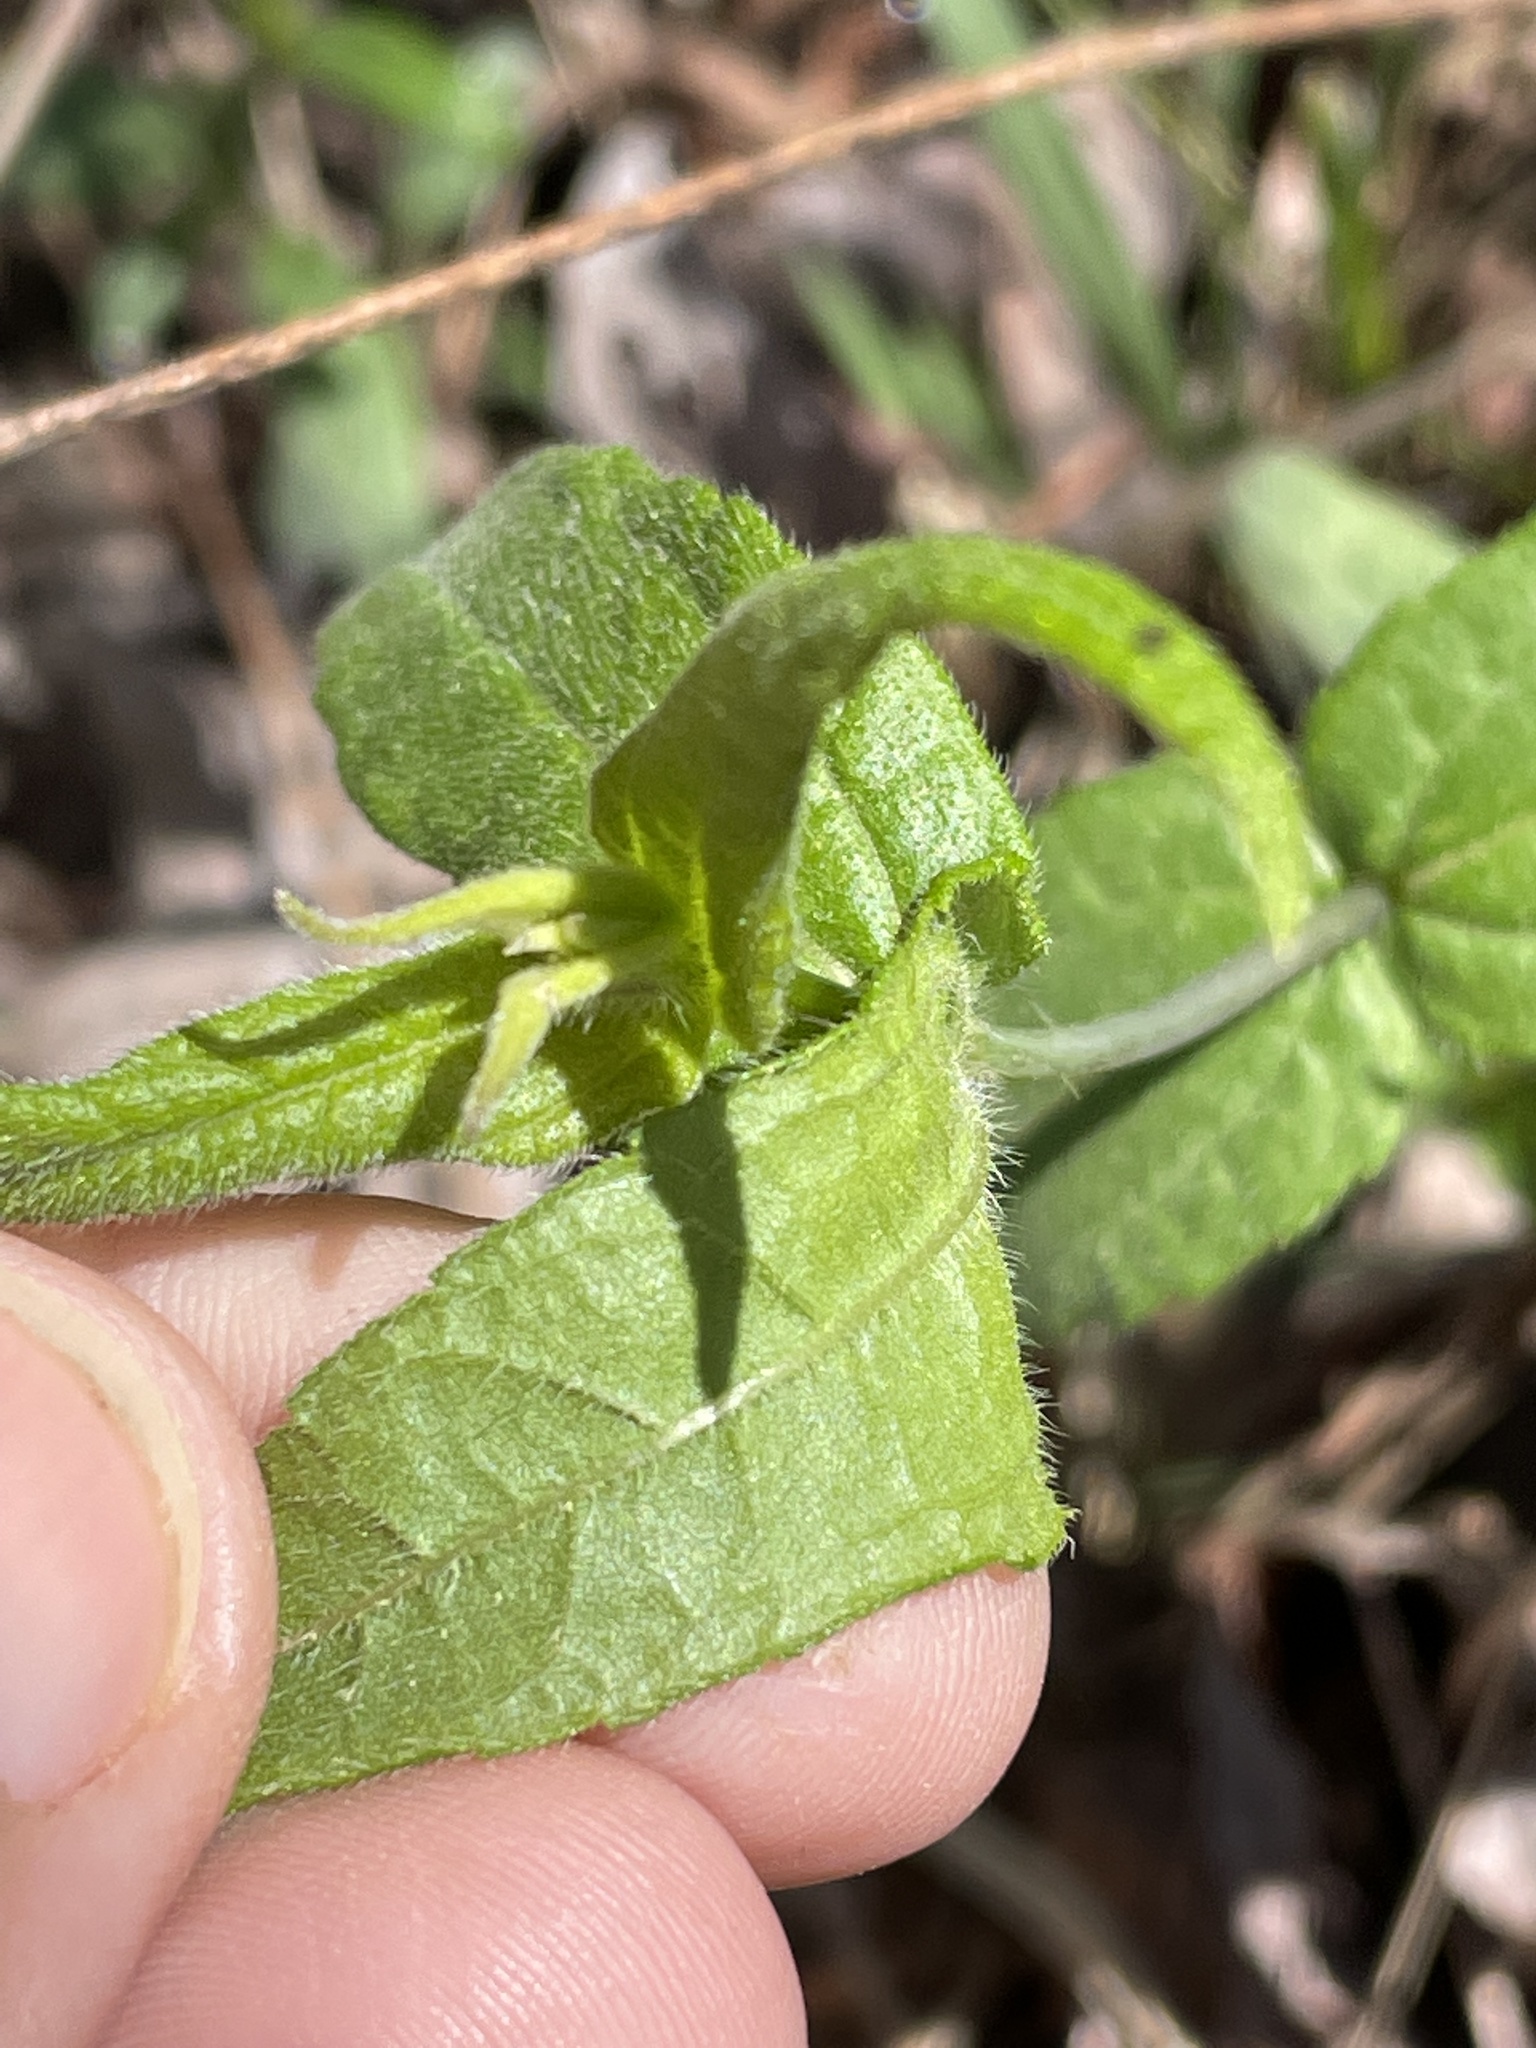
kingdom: Plantae
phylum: Tracheophyta
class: Magnoliopsida
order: Asterales
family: Asteraceae
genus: Helianthus
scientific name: Helianthus divaricatus
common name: Divergent sunflower
